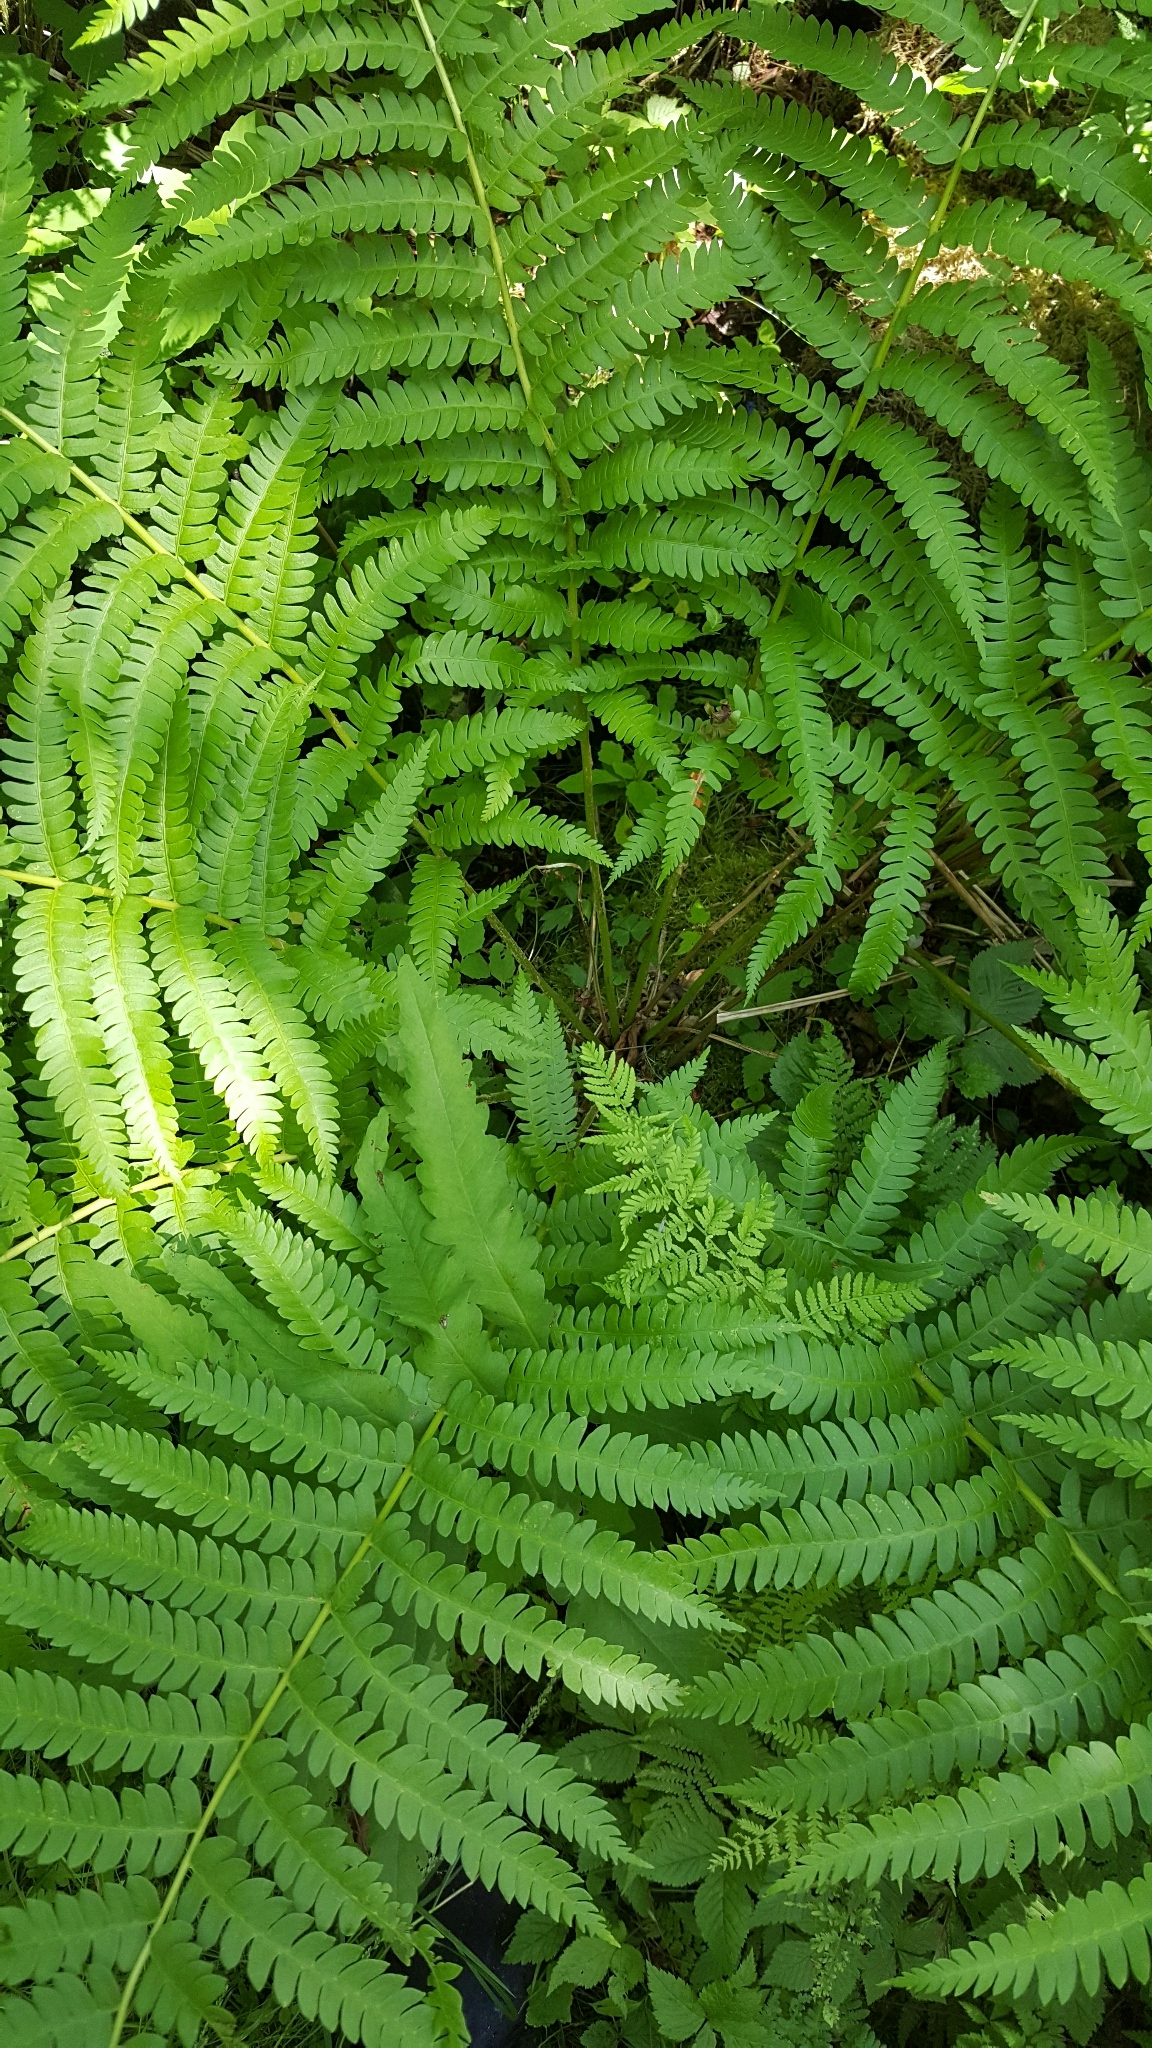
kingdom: Plantae
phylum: Tracheophyta
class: Polypodiopsida
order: Osmundales
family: Osmundaceae
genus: Osmundastrum
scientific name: Osmundastrum cinnamomeum
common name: Cinnamon fern
